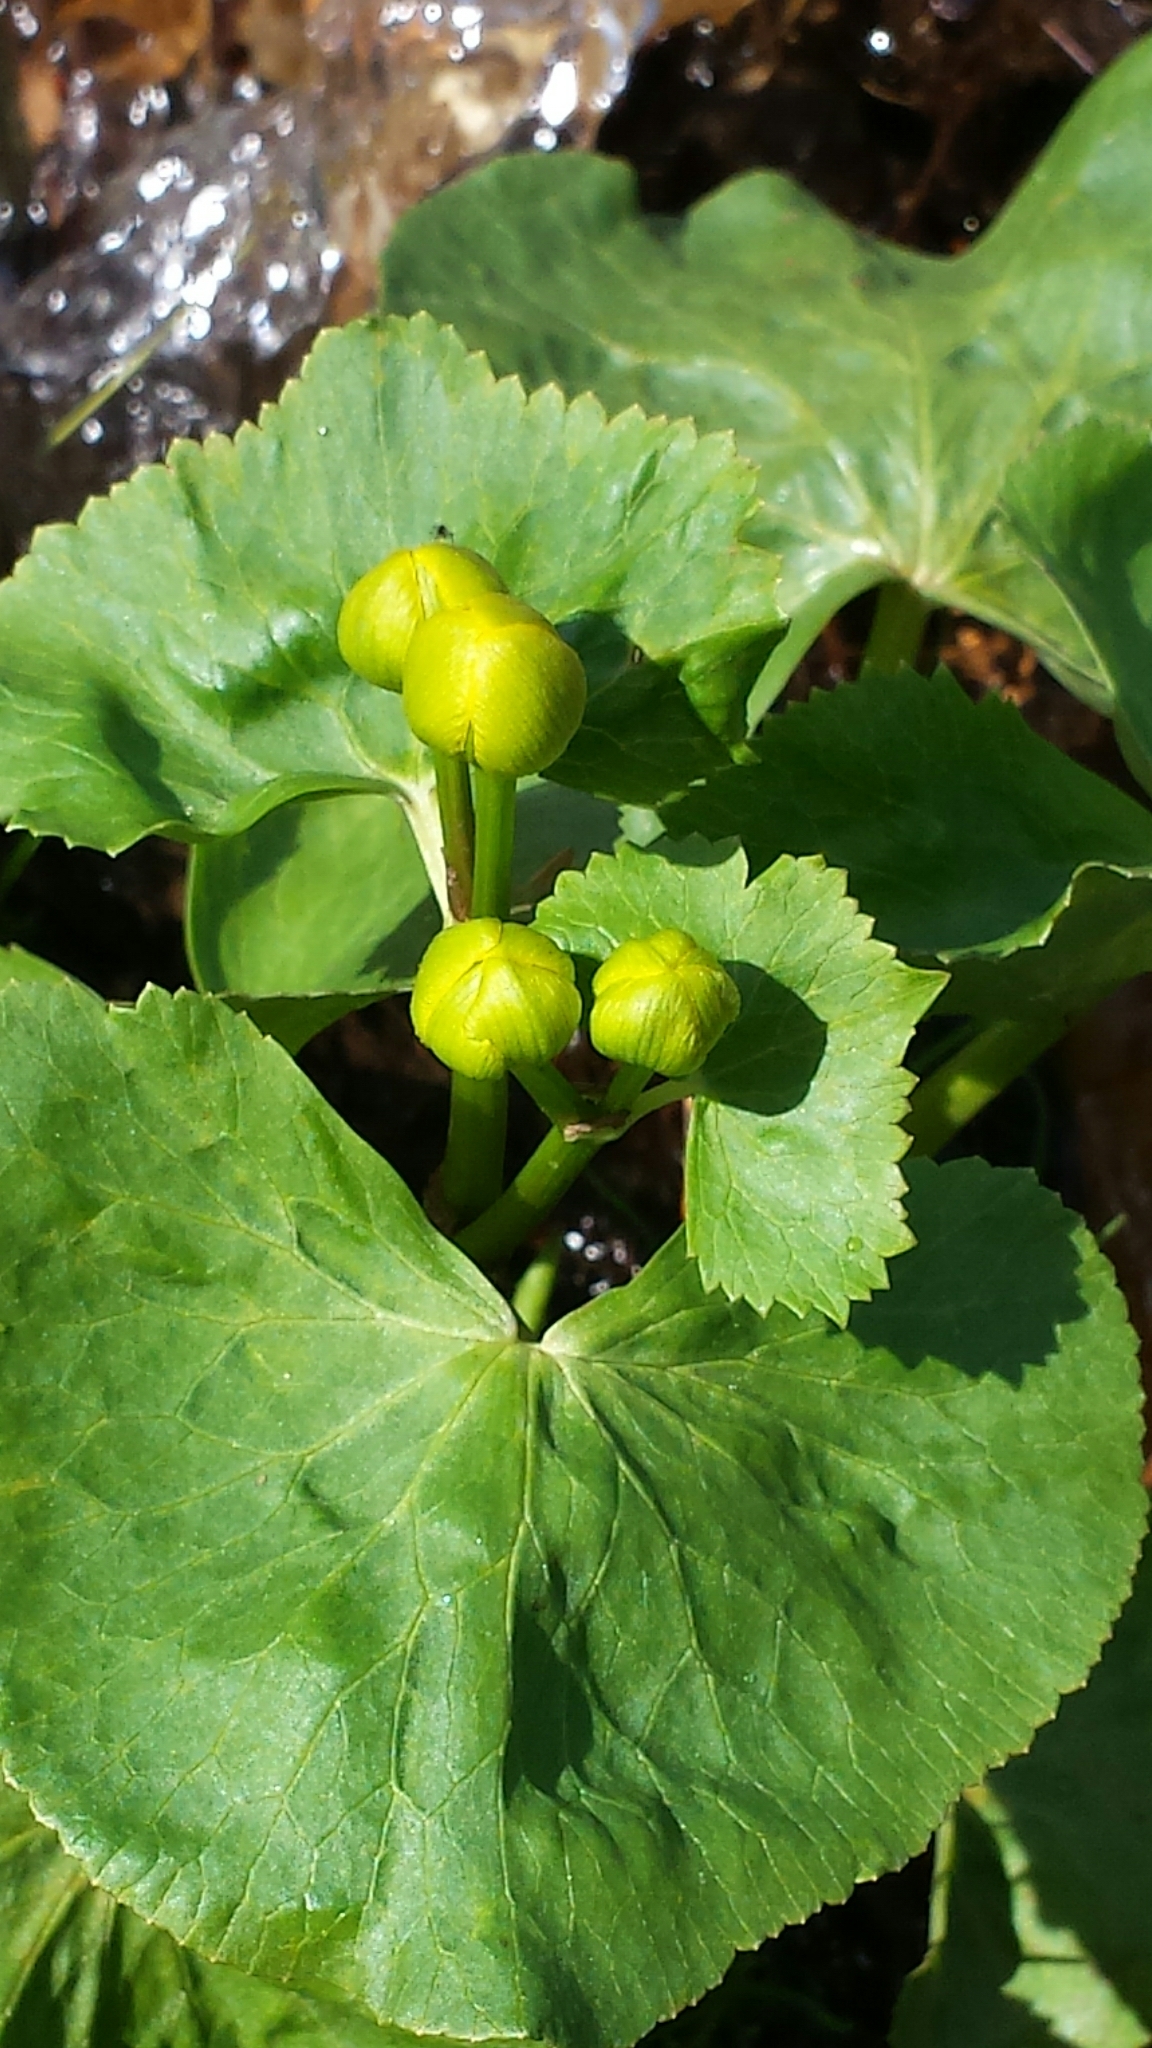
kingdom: Plantae
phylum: Tracheophyta
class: Magnoliopsida
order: Ranunculales
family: Ranunculaceae
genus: Caltha
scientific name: Caltha palustris
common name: Marsh marigold
